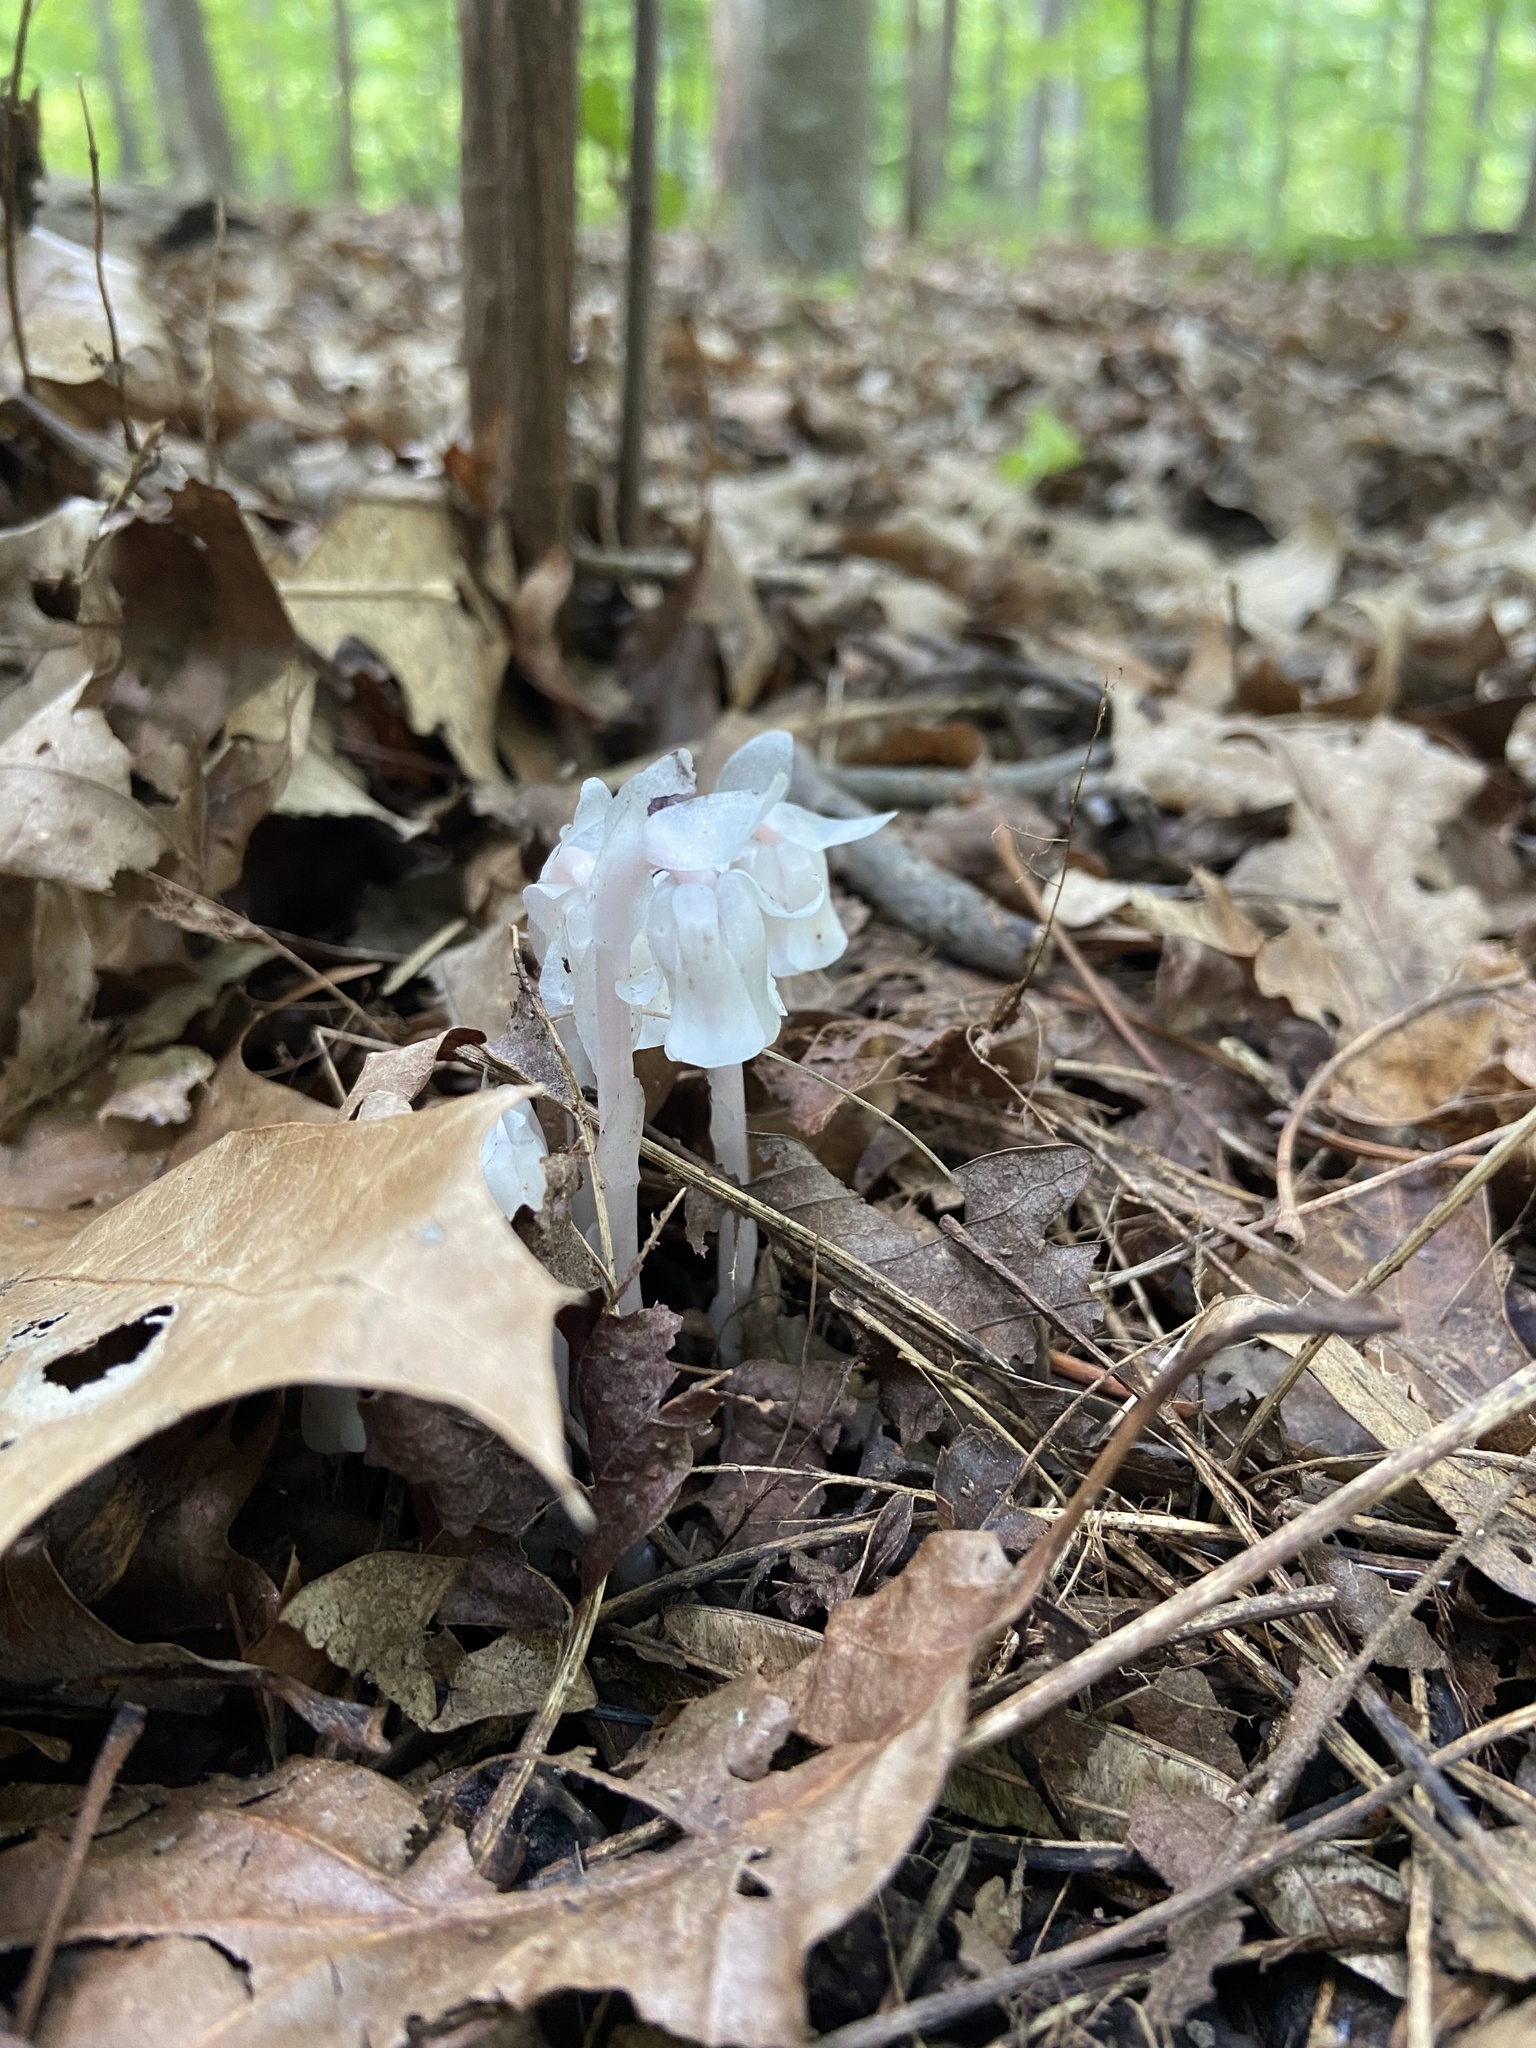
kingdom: Plantae
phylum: Tracheophyta
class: Magnoliopsida
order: Ericales
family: Ericaceae
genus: Monotropa
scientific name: Monotropa uniflora
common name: Convulsion root
